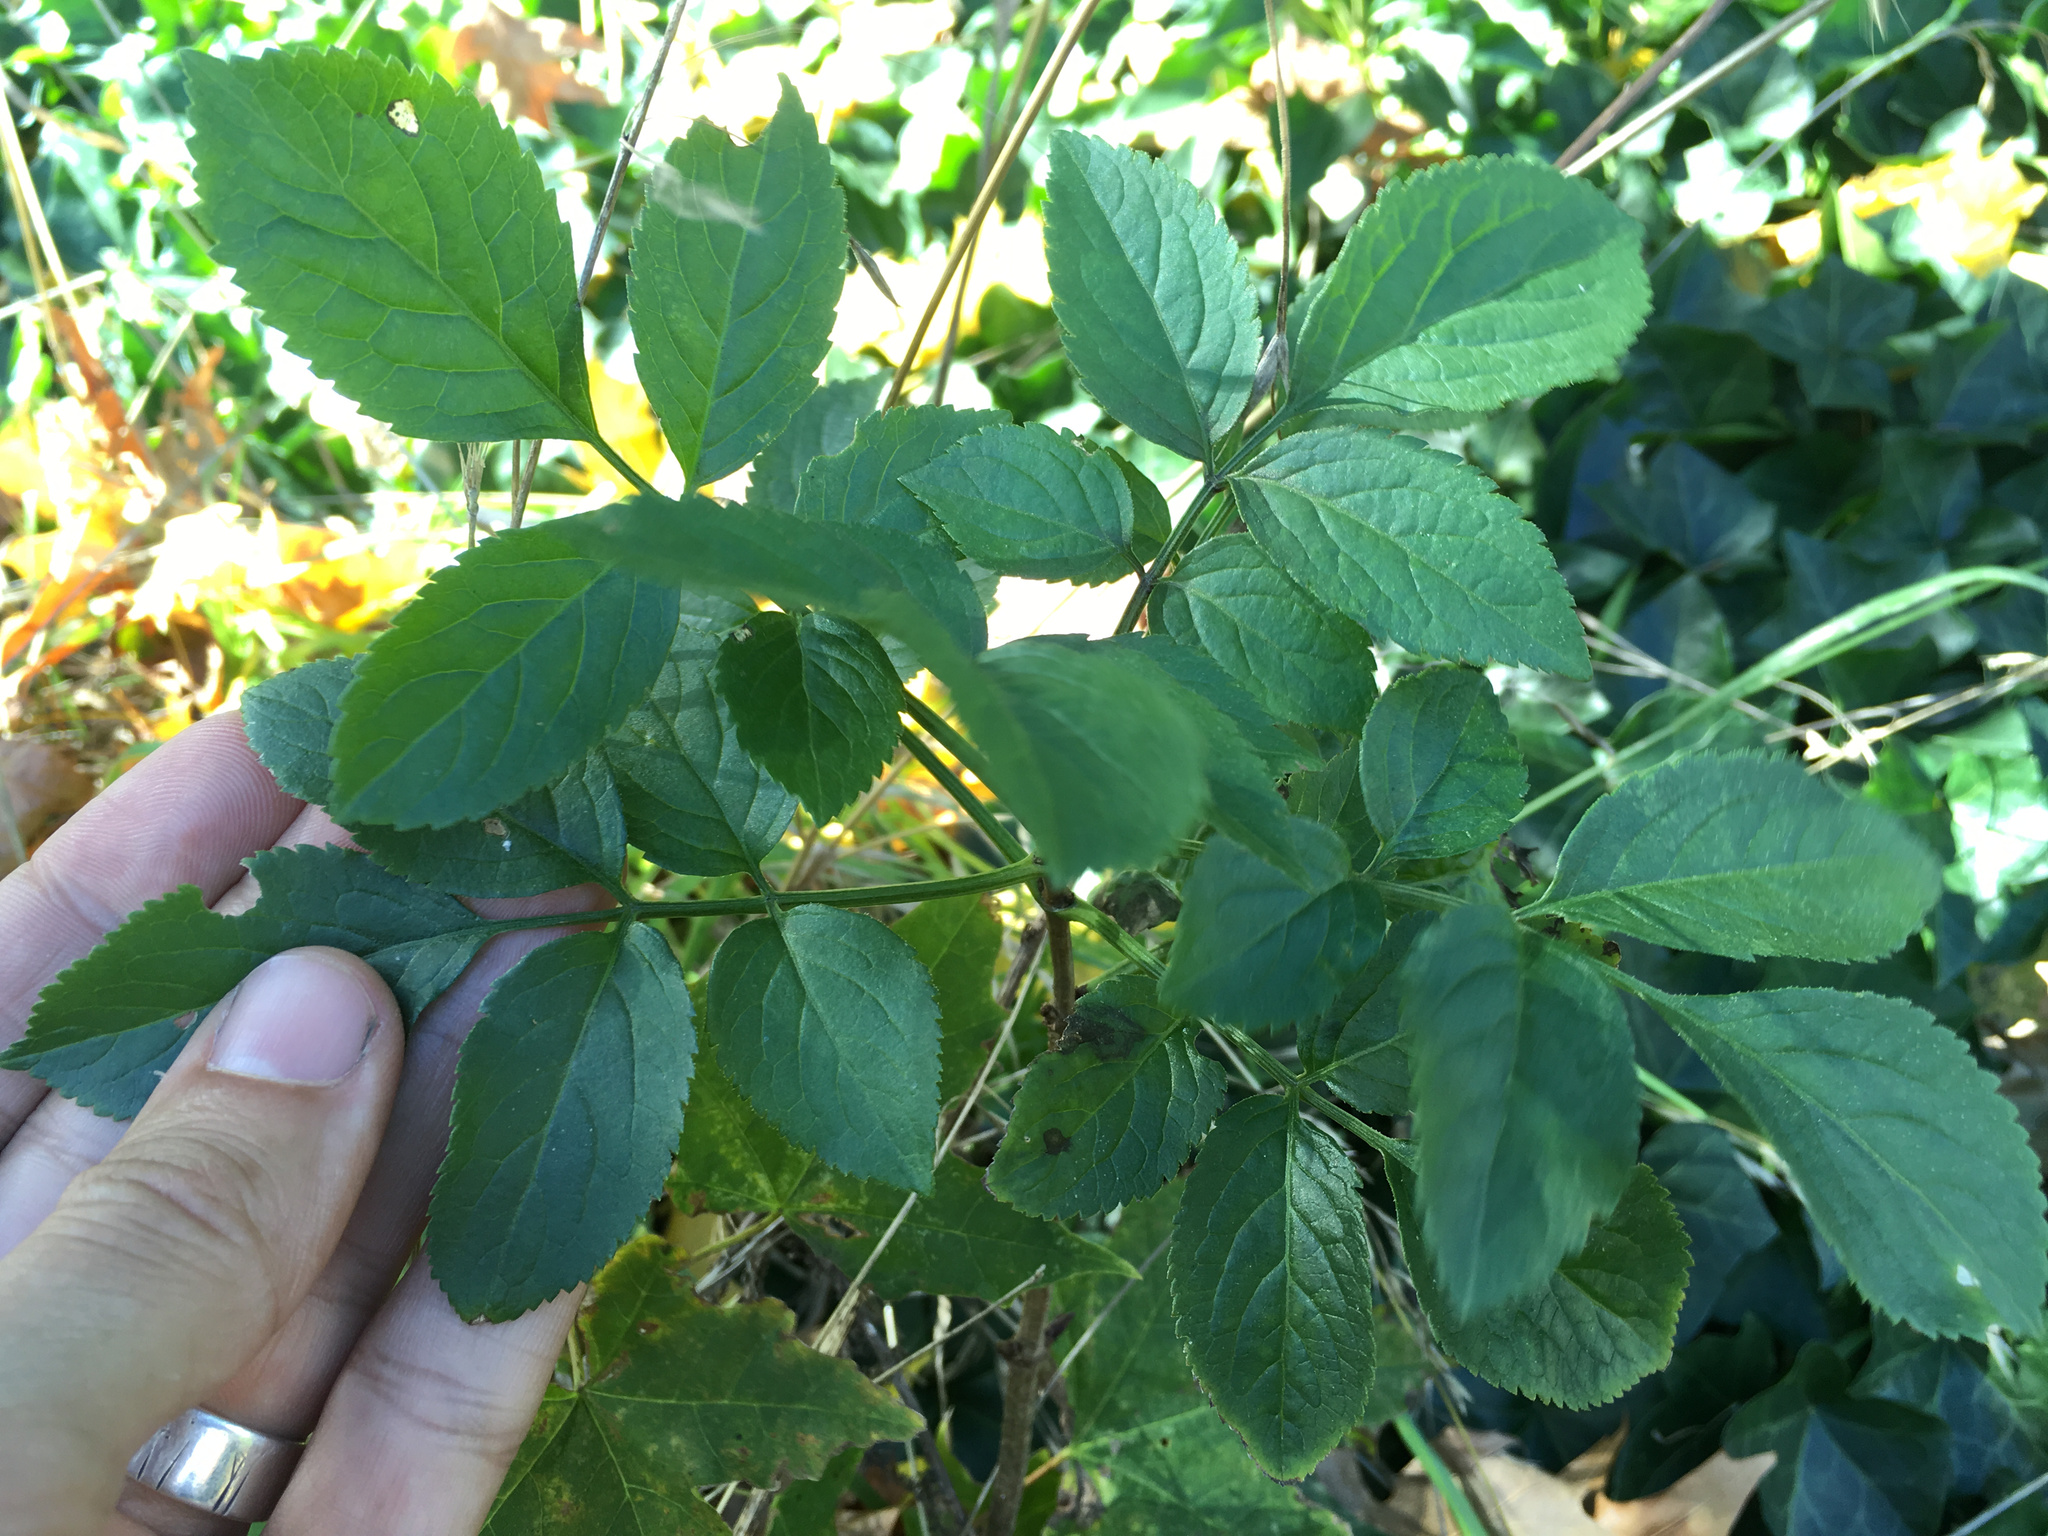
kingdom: Plantae
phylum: Tracheophyta
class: Magnoliopsida
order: Dipsacales
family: Viburnaceae
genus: Sambucus
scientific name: Sambucus nigra
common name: Elder
